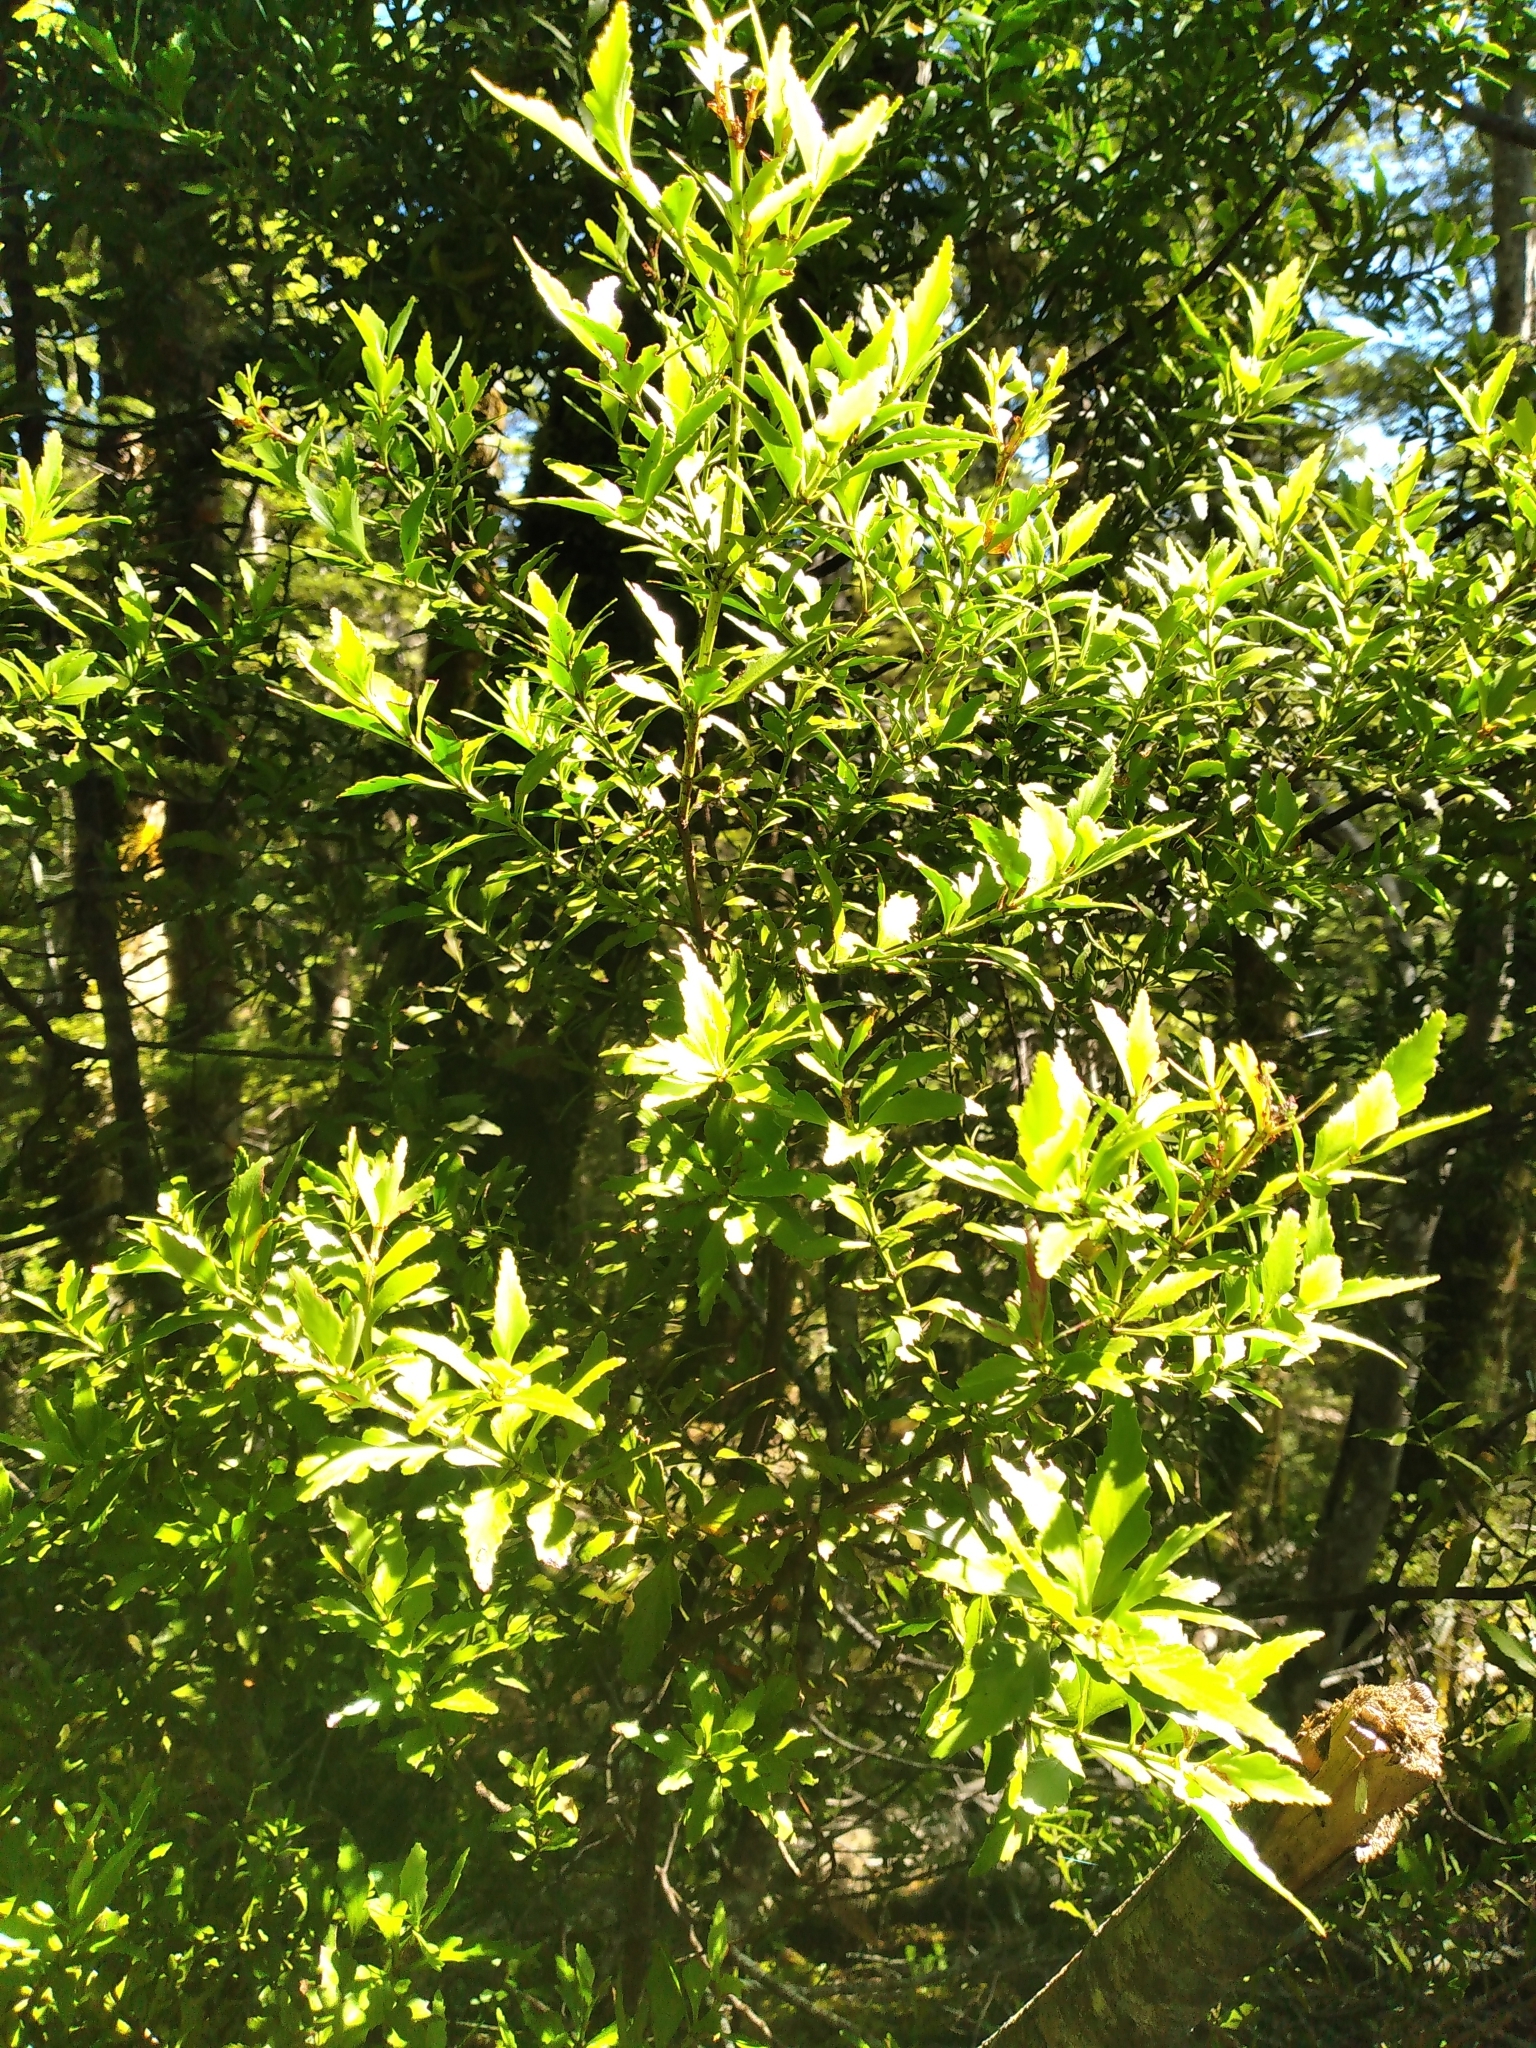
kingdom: Plantae
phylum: Tracheophyta
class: Pinopsida
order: Pinales
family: Phyllocladaceae
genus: Phyllocladus
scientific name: Phyllocladus trichomanoides
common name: Celery pine
